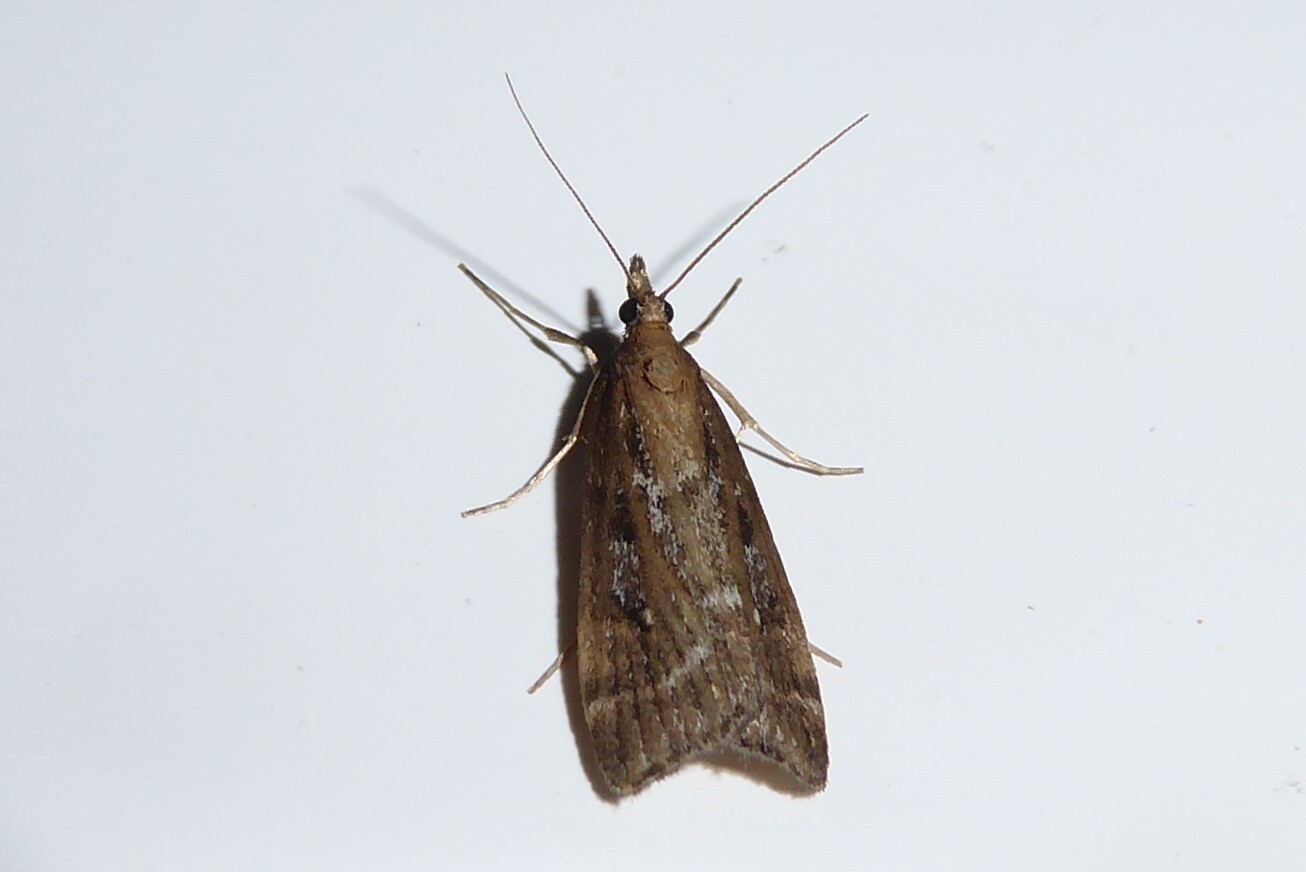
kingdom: Animalia
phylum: Arthropoda
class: Insecta
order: Lepidoptera
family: Crambidae
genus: Eudonia
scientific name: Eudonia octophora
